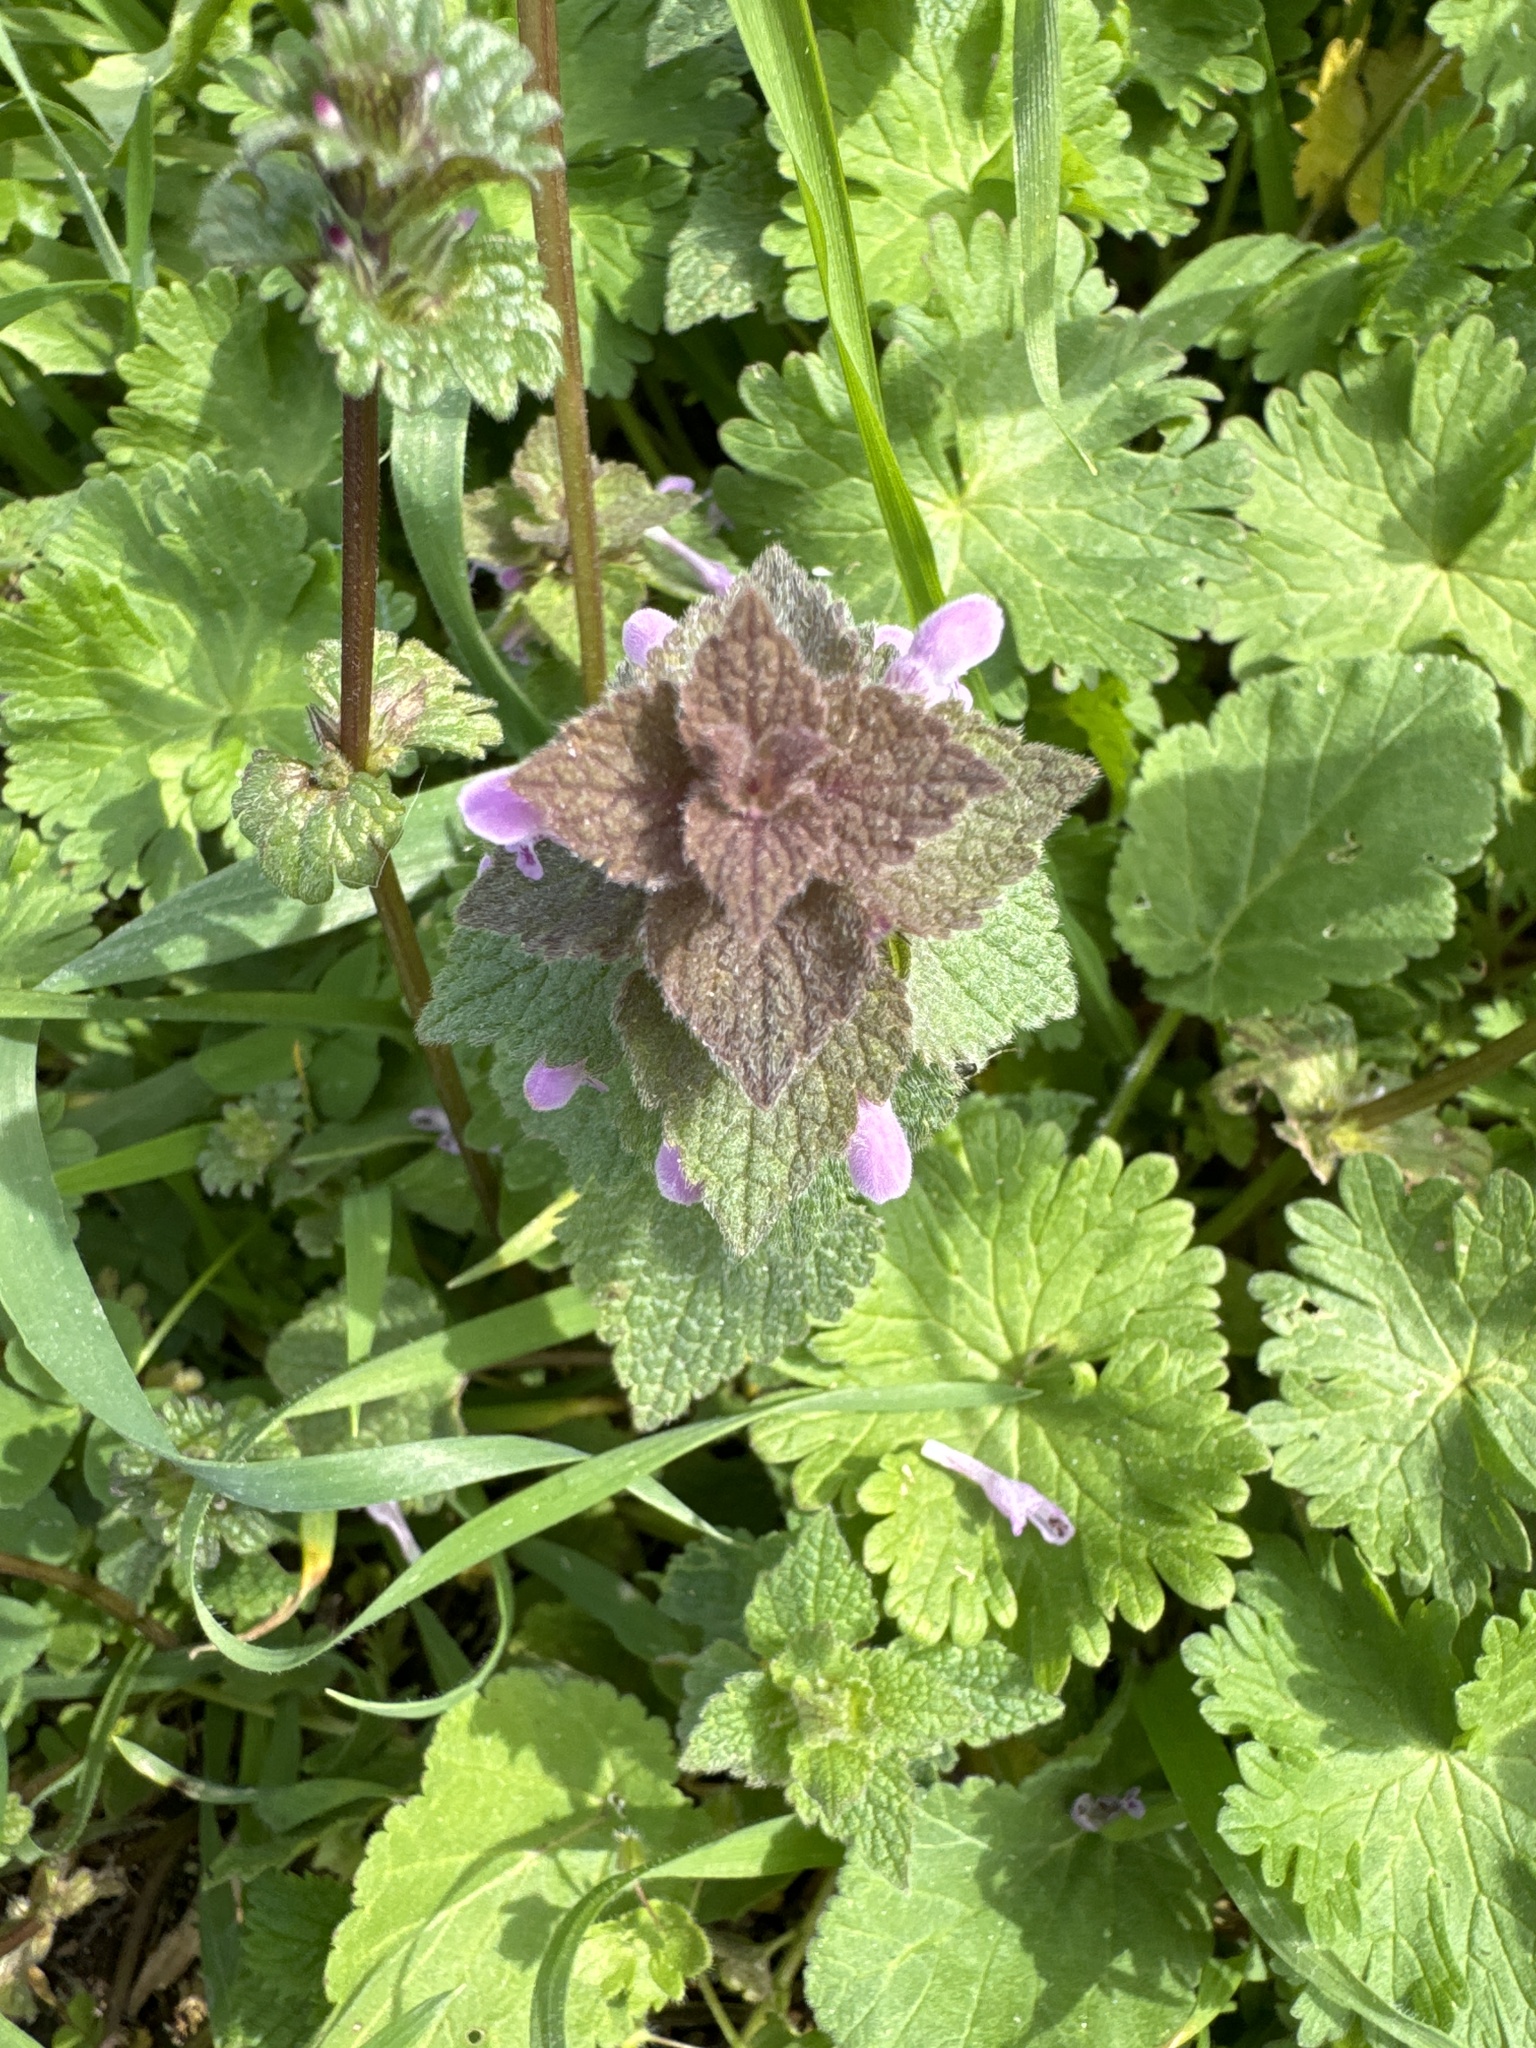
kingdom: Plantae
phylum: Tracheophyta
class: Magnoliopsida
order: Lamiales
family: Lamiaceae
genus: Lamium
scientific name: Lamium purpureum
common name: Red dead-nettle
